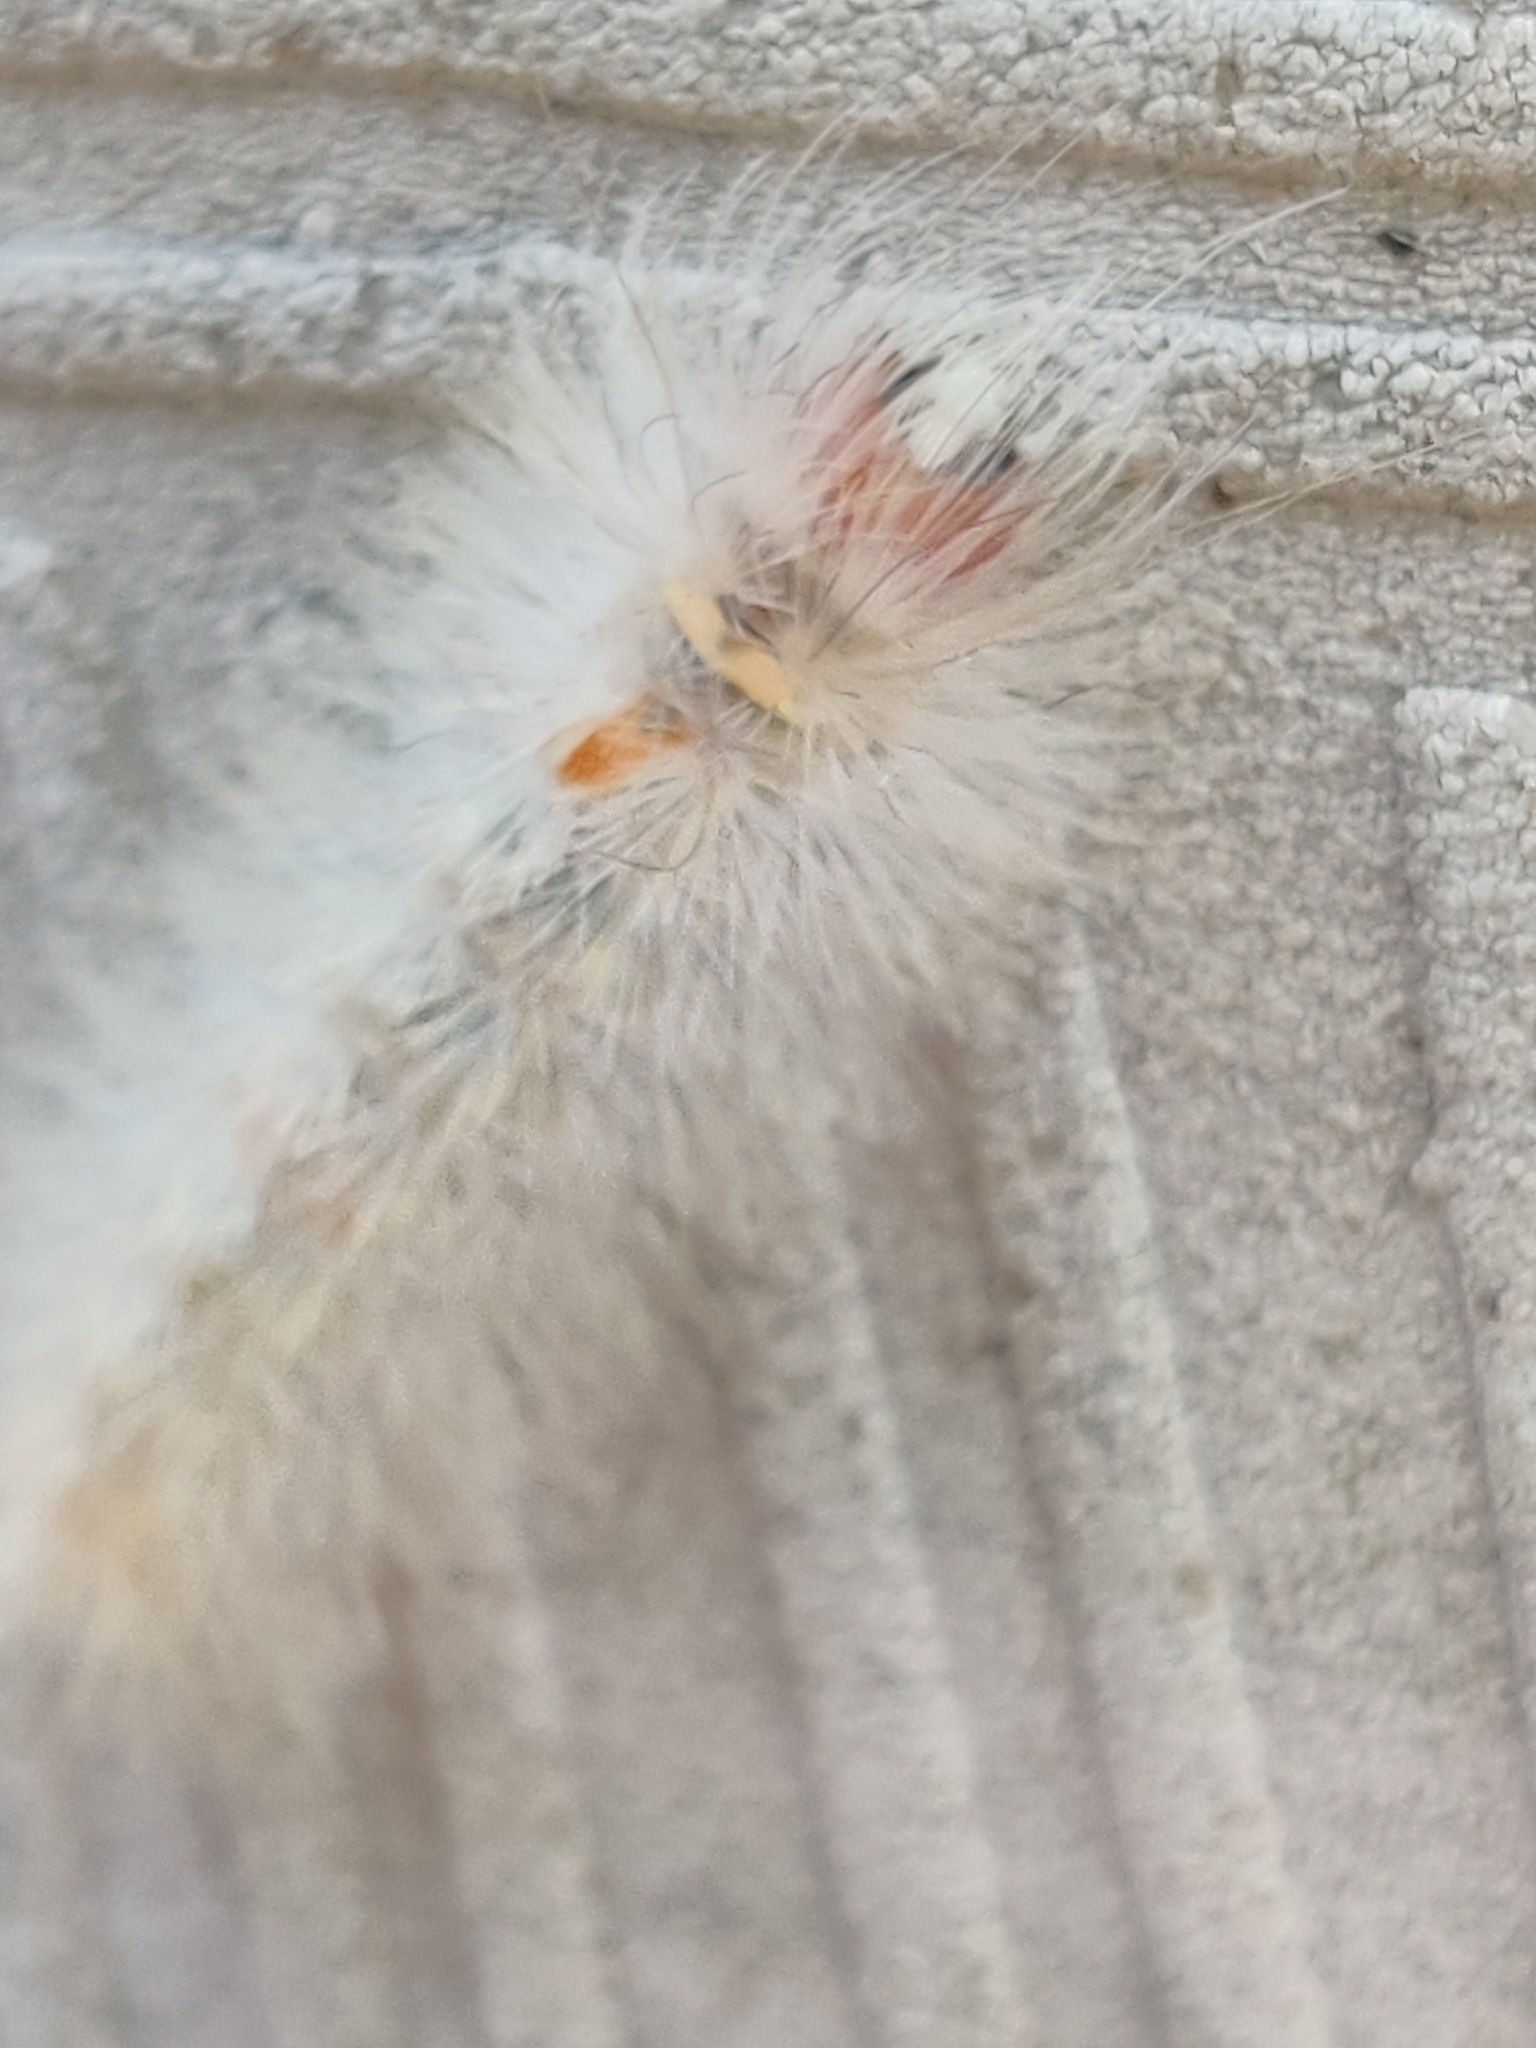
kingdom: Animalia
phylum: Arthropoda
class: Insecta
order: Lepidoptera
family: Erebidae
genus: Lymire
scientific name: Lymire edwardsii
